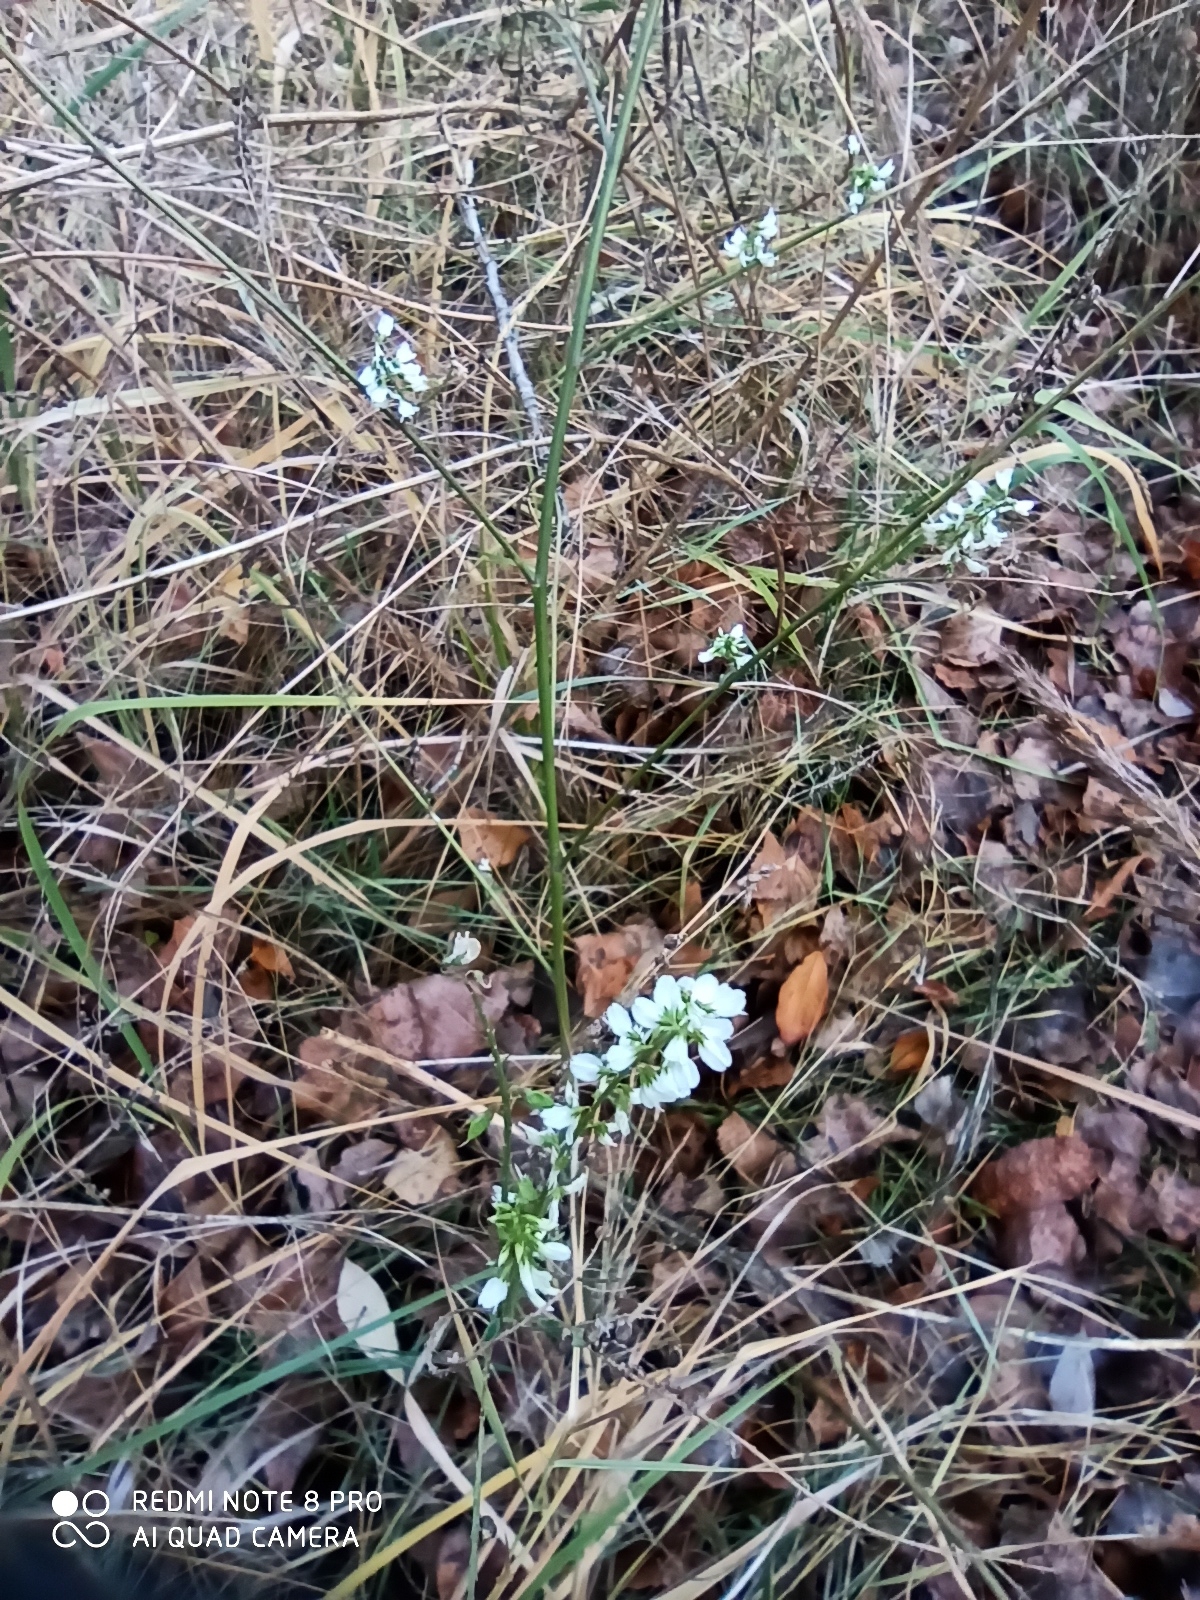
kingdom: Plantae
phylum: Tracheophyta
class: Magnoliopsida
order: Fabales
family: Fabaceae
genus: Melilotus
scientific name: Melilotus albus
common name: White melilot
